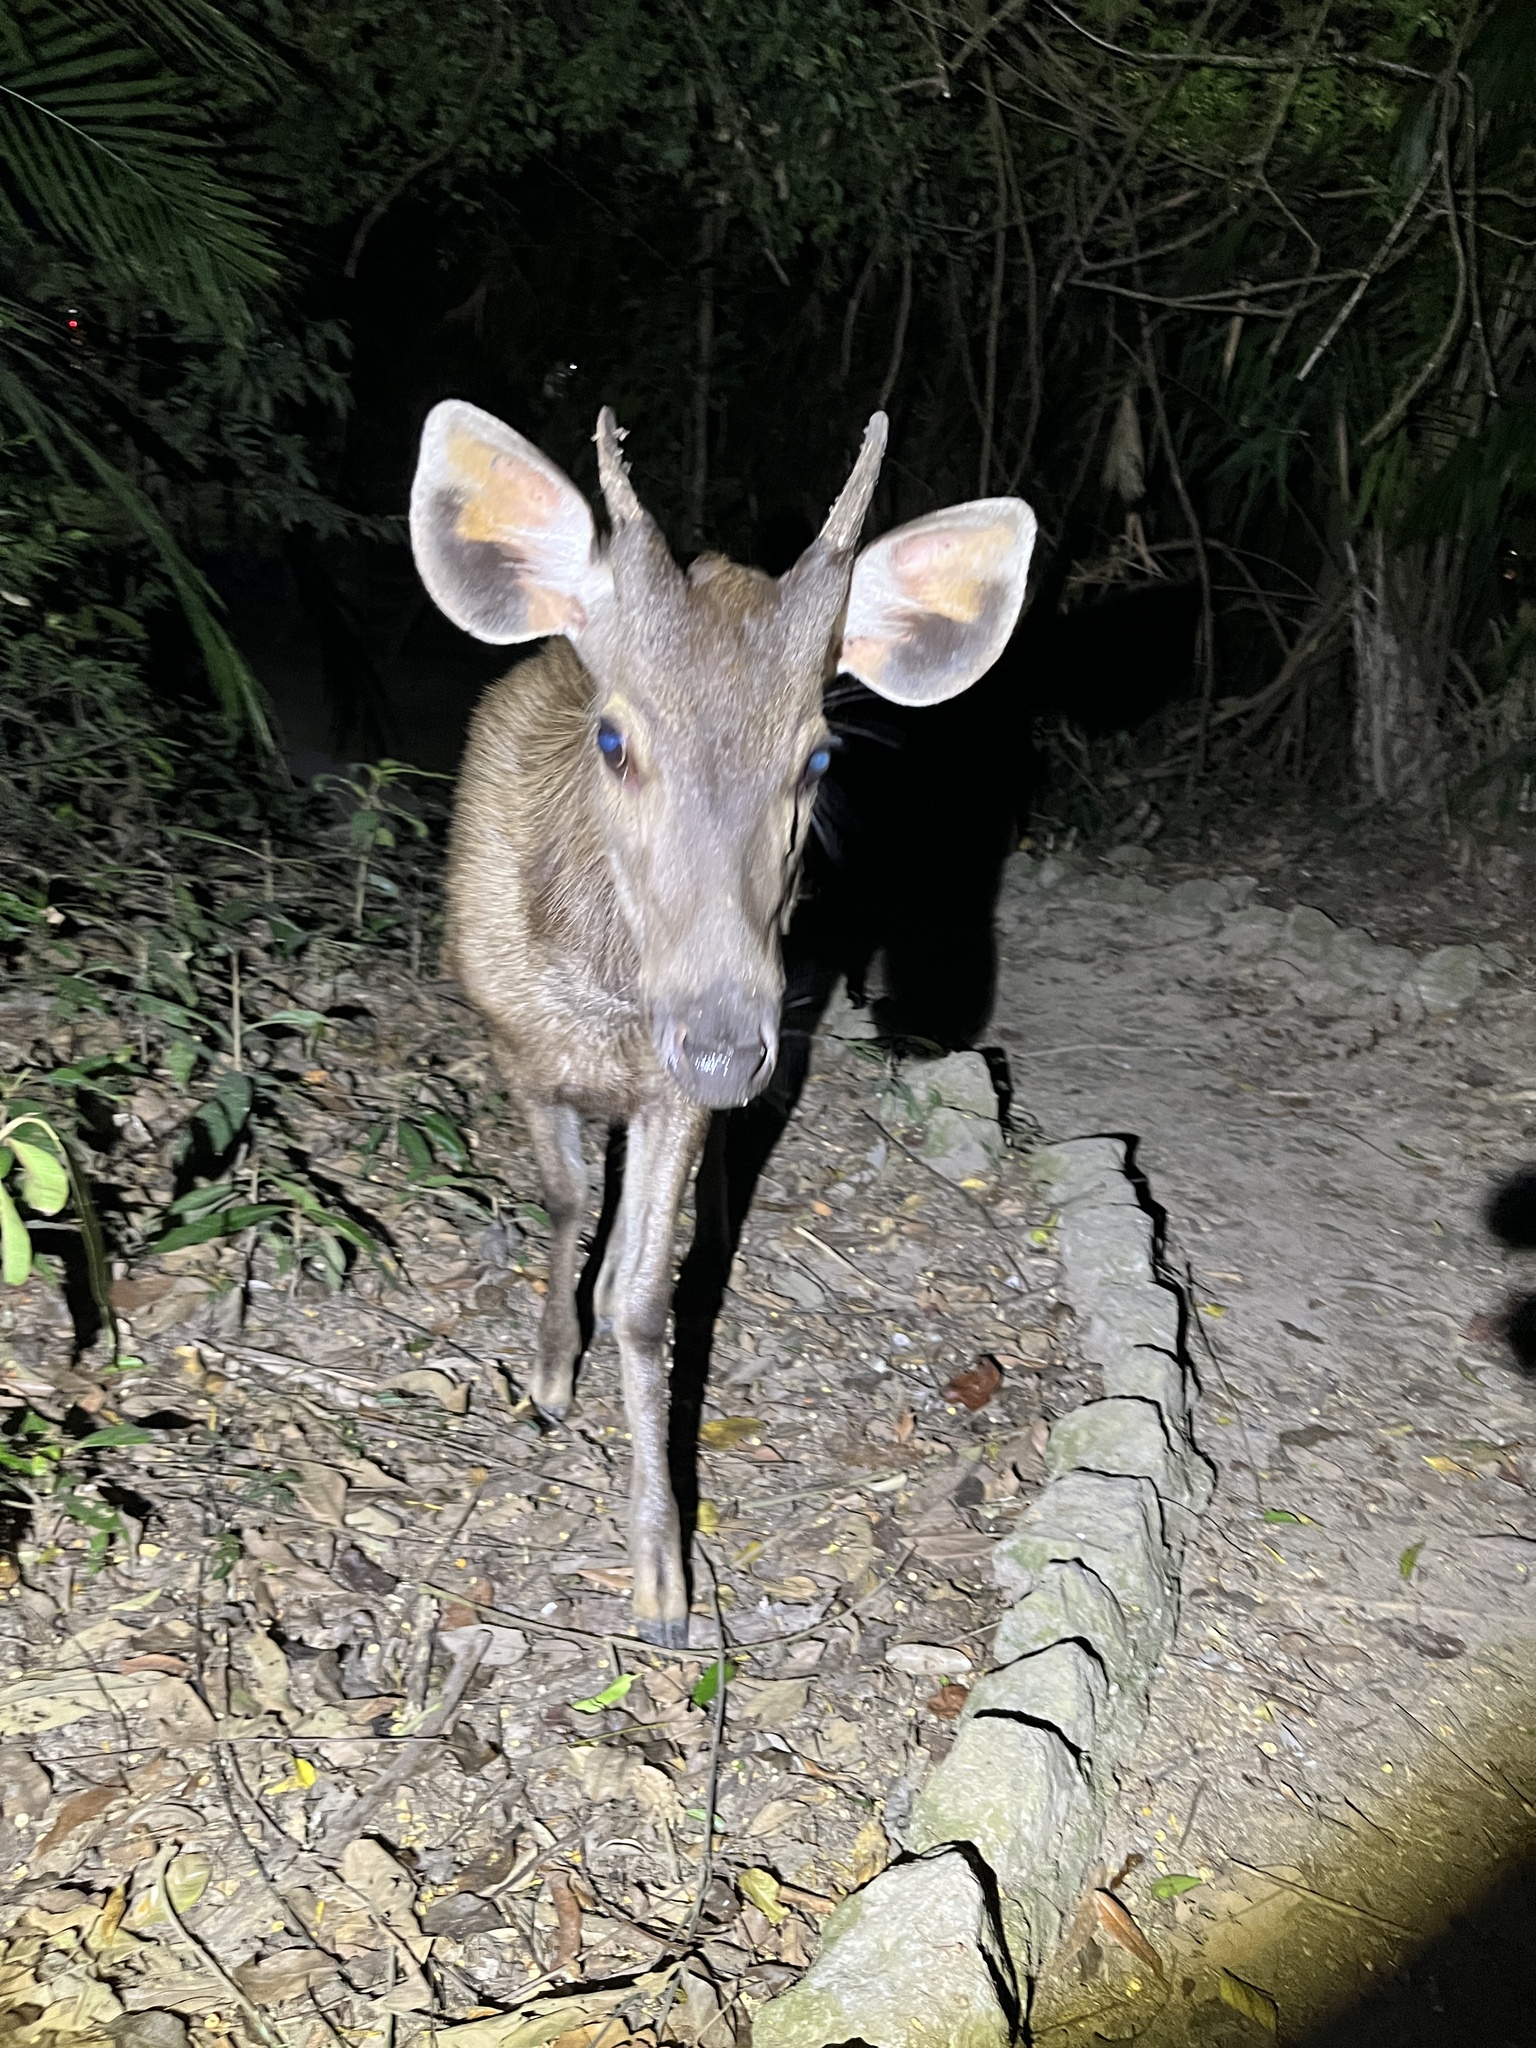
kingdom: Animalia
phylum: Chordata
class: Mammalia
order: Artiodactyla
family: Cervidae
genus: Rusa
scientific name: Rusa unicolor
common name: Sambar
